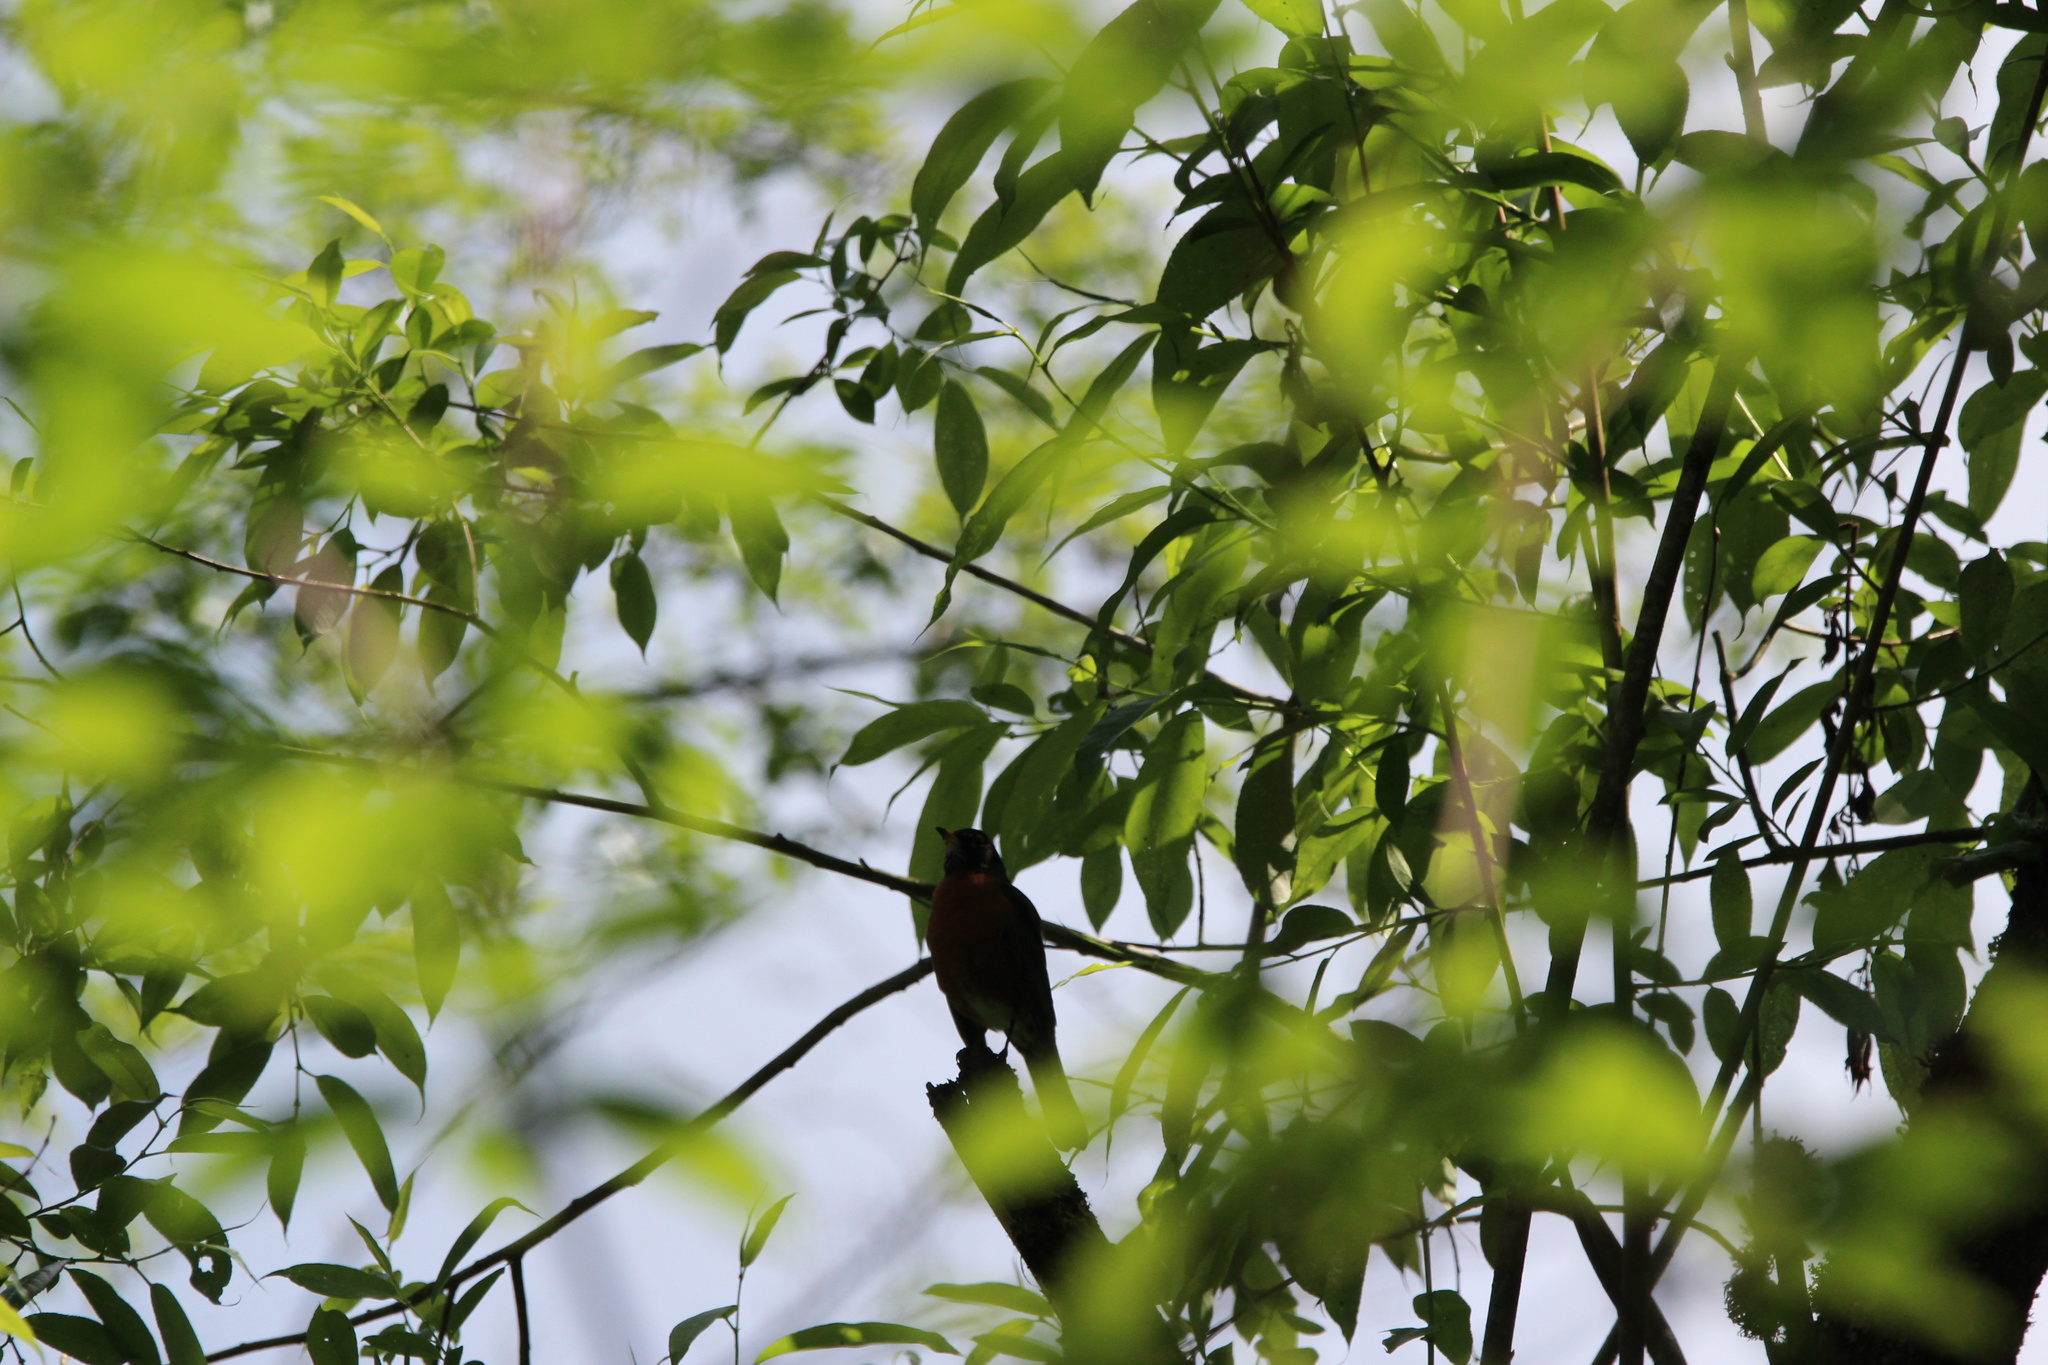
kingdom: Animalia
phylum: Chordata
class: Aves
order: Passeriformes
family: Turdidae
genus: Turdus
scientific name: Turdus migratorius
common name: American robin
